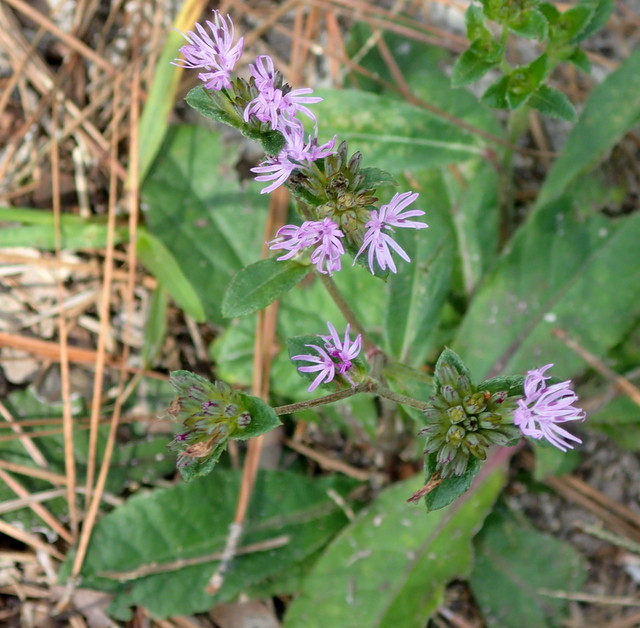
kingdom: Plantae
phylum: Tracheophyta
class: Magnoliopsida
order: Asterales
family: Asteraceae
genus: Elephantopus
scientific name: Elephantopus nudatus
